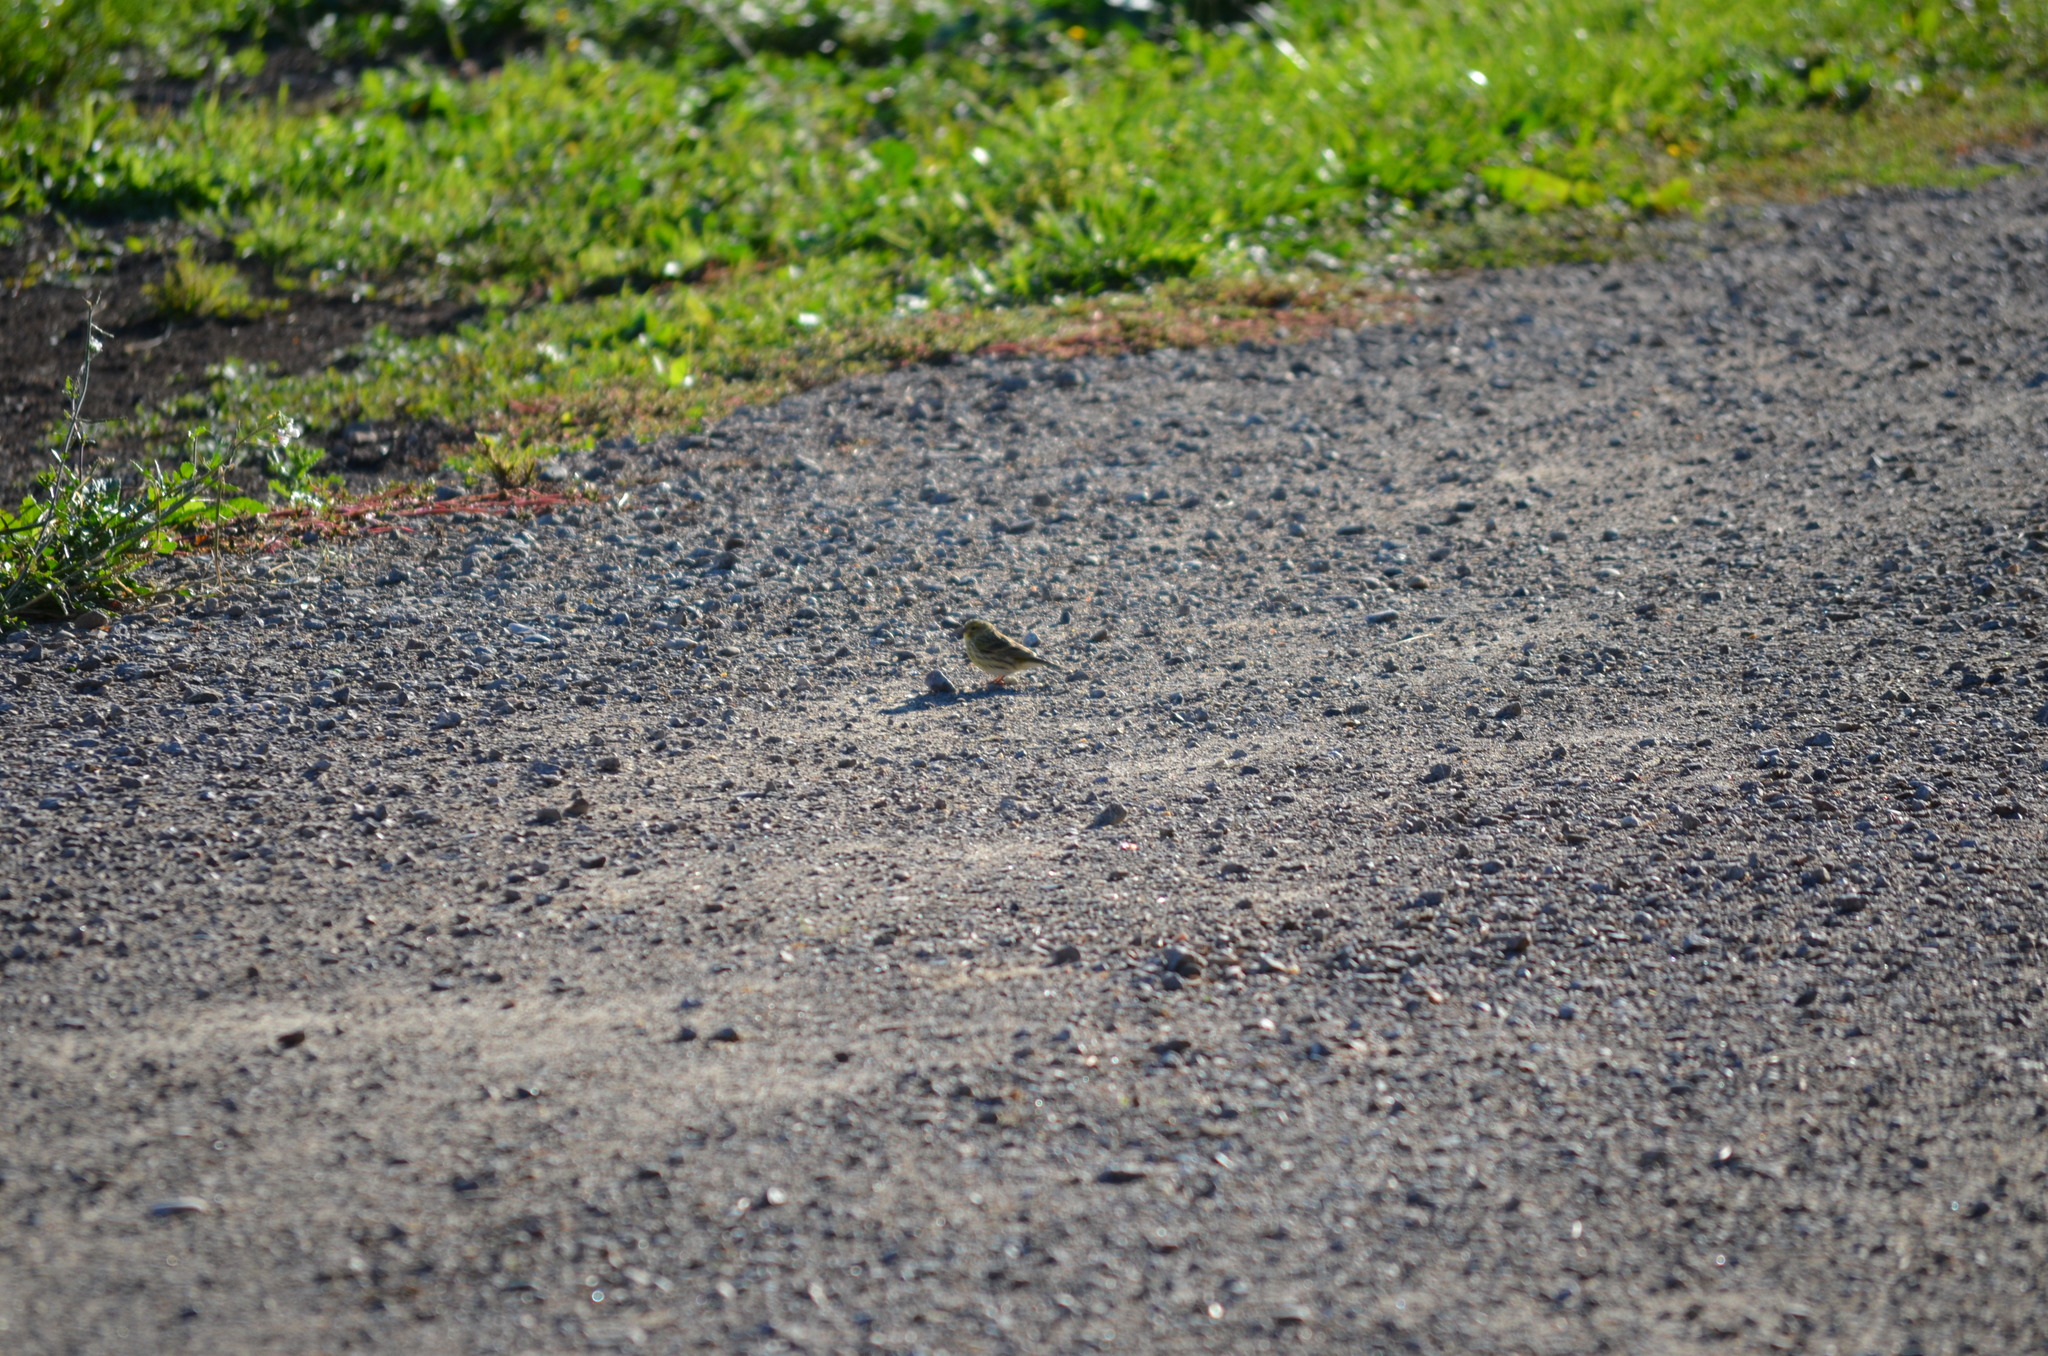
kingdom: Animalia
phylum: Chordata
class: Aves
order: Passeriformes
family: Fringillidae
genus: Serinus
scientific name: Serinus serinus
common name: European serin
